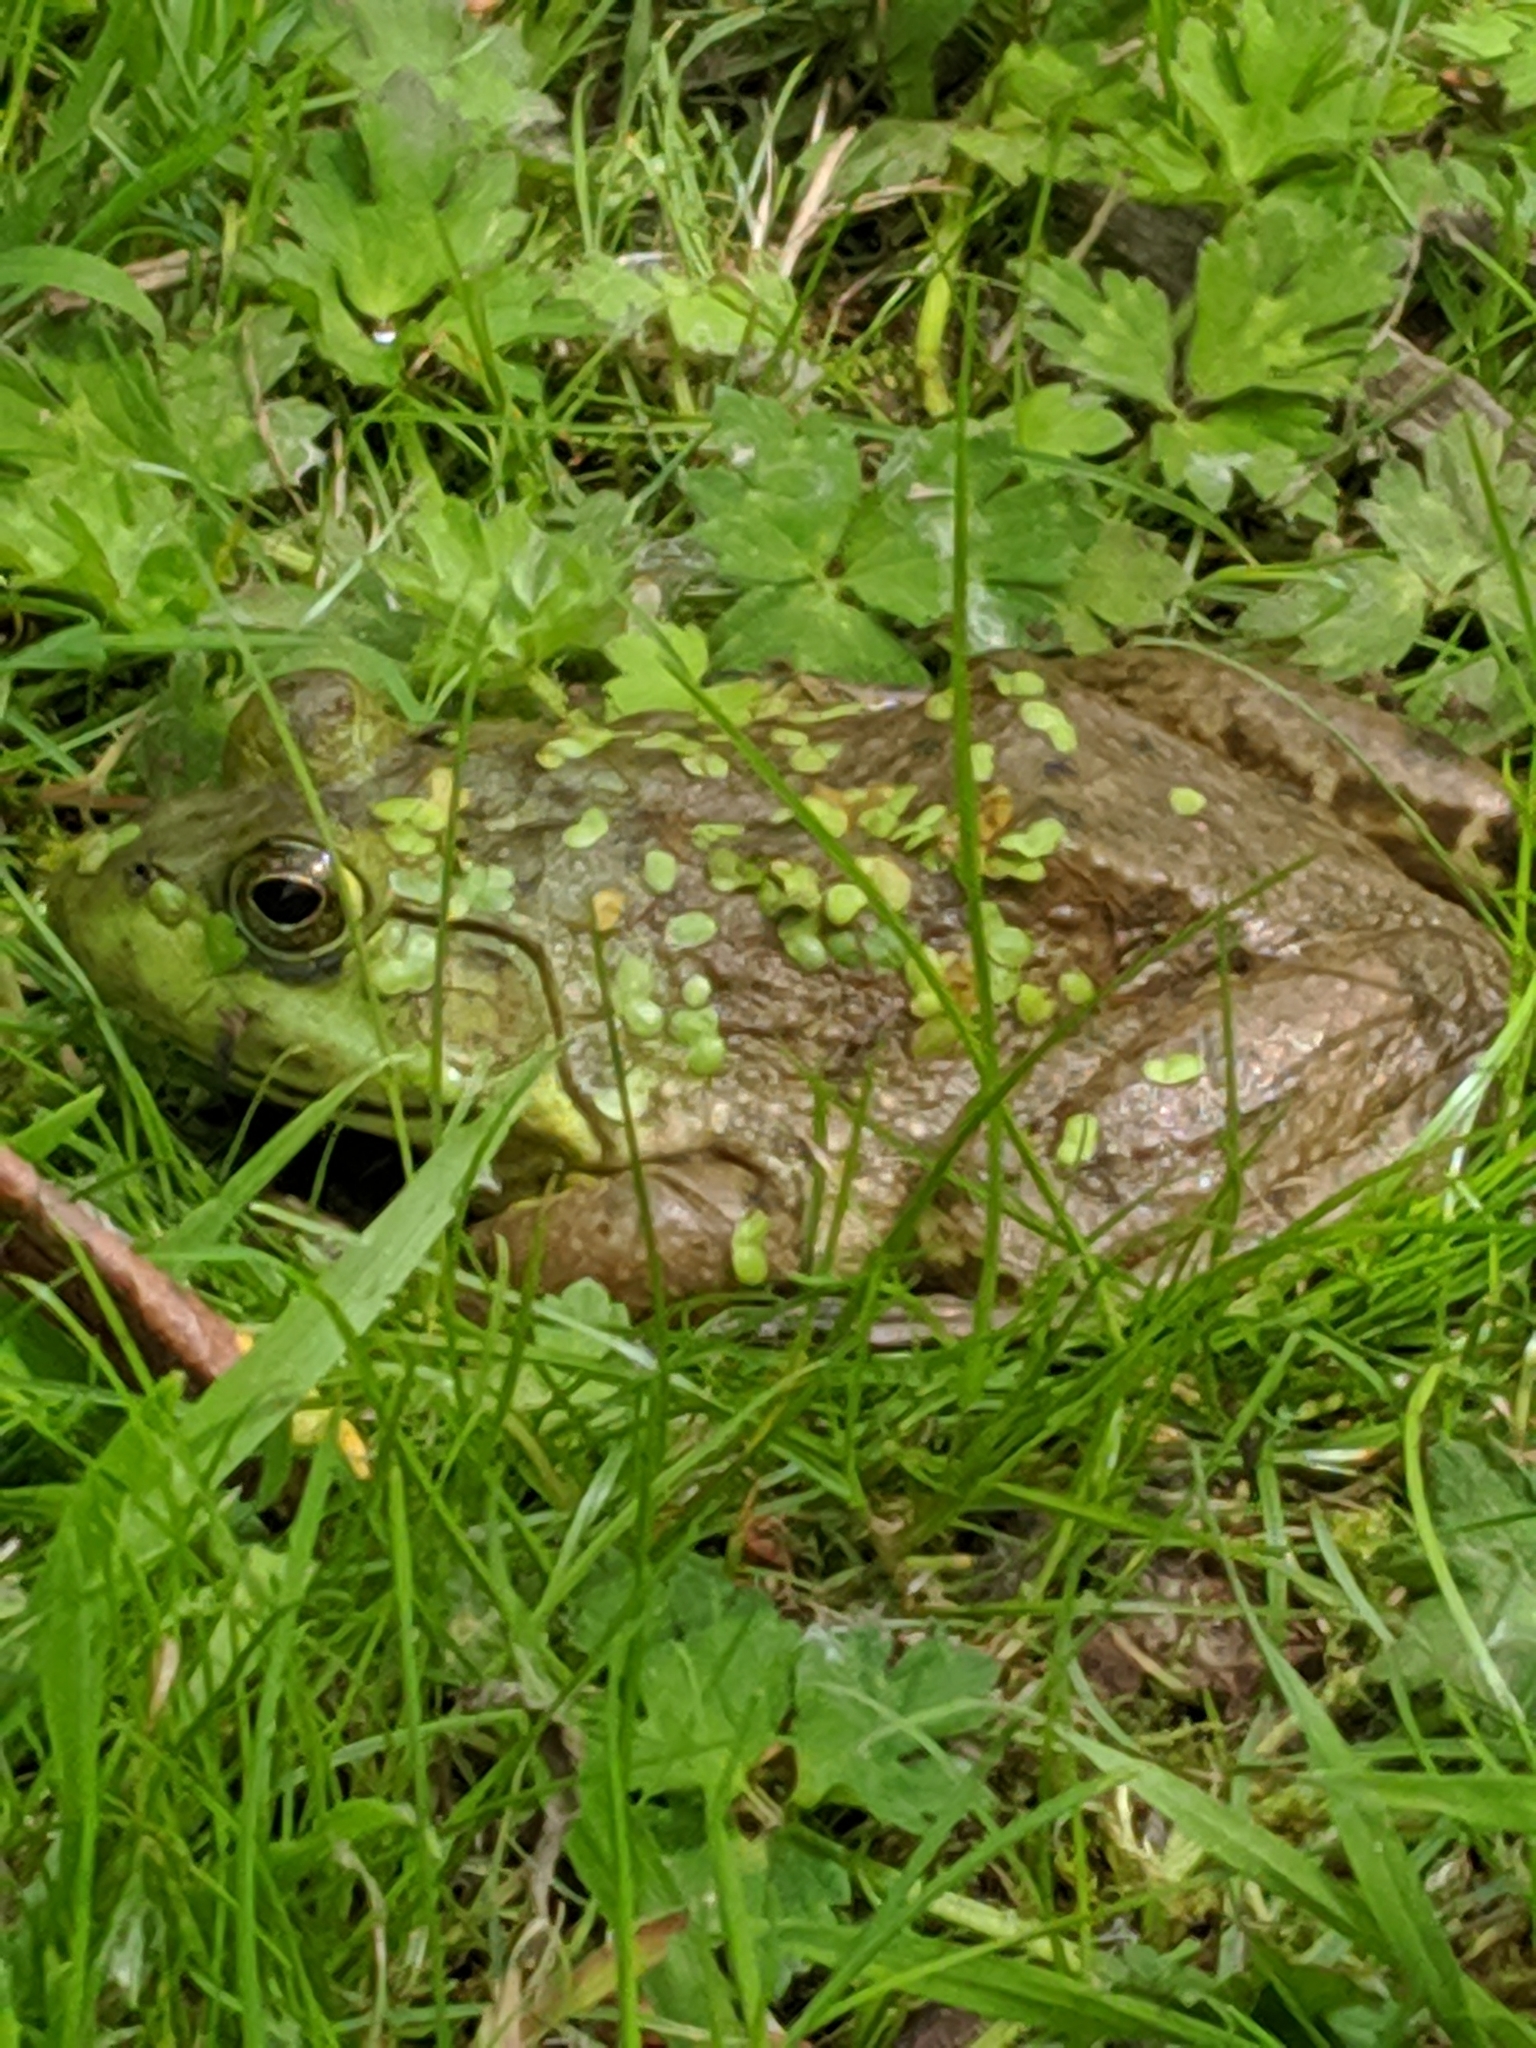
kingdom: Animalia
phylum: Chordata
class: Amphibia
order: Anura
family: Ranidae
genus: Lithobates
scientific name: Lithobates catesbeianus
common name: American bullfrog
